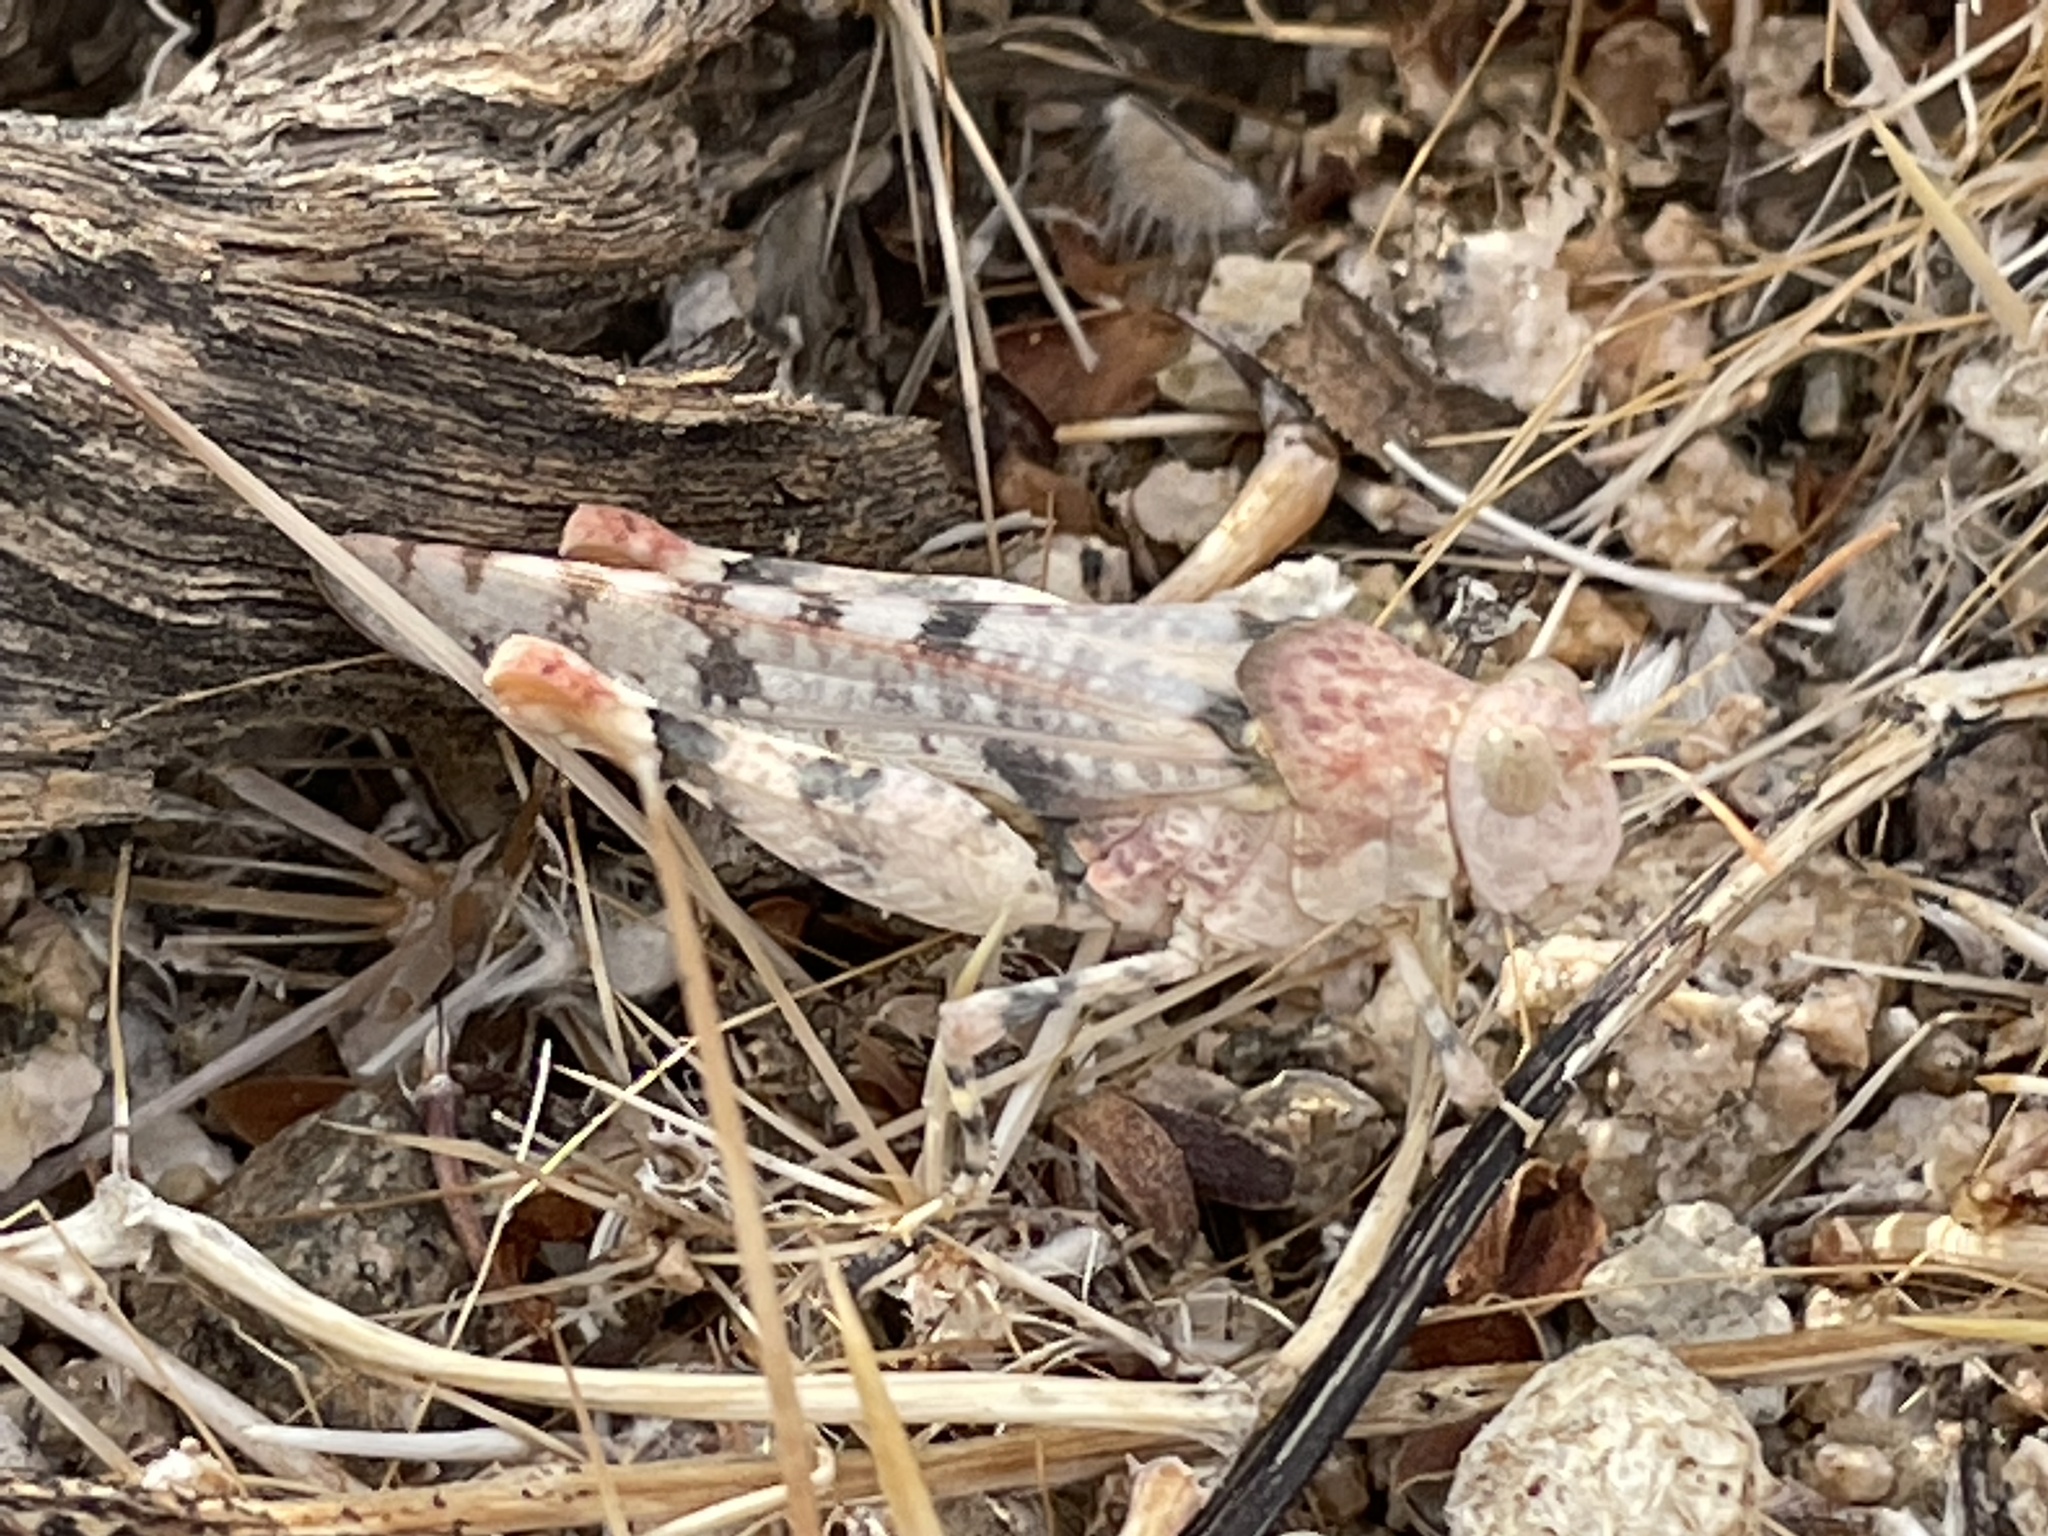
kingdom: Animalia
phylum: Arthropoda
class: Insecta
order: Orthoptera
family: Acrididae
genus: Cibolacris
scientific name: Cibolacris parviceps
